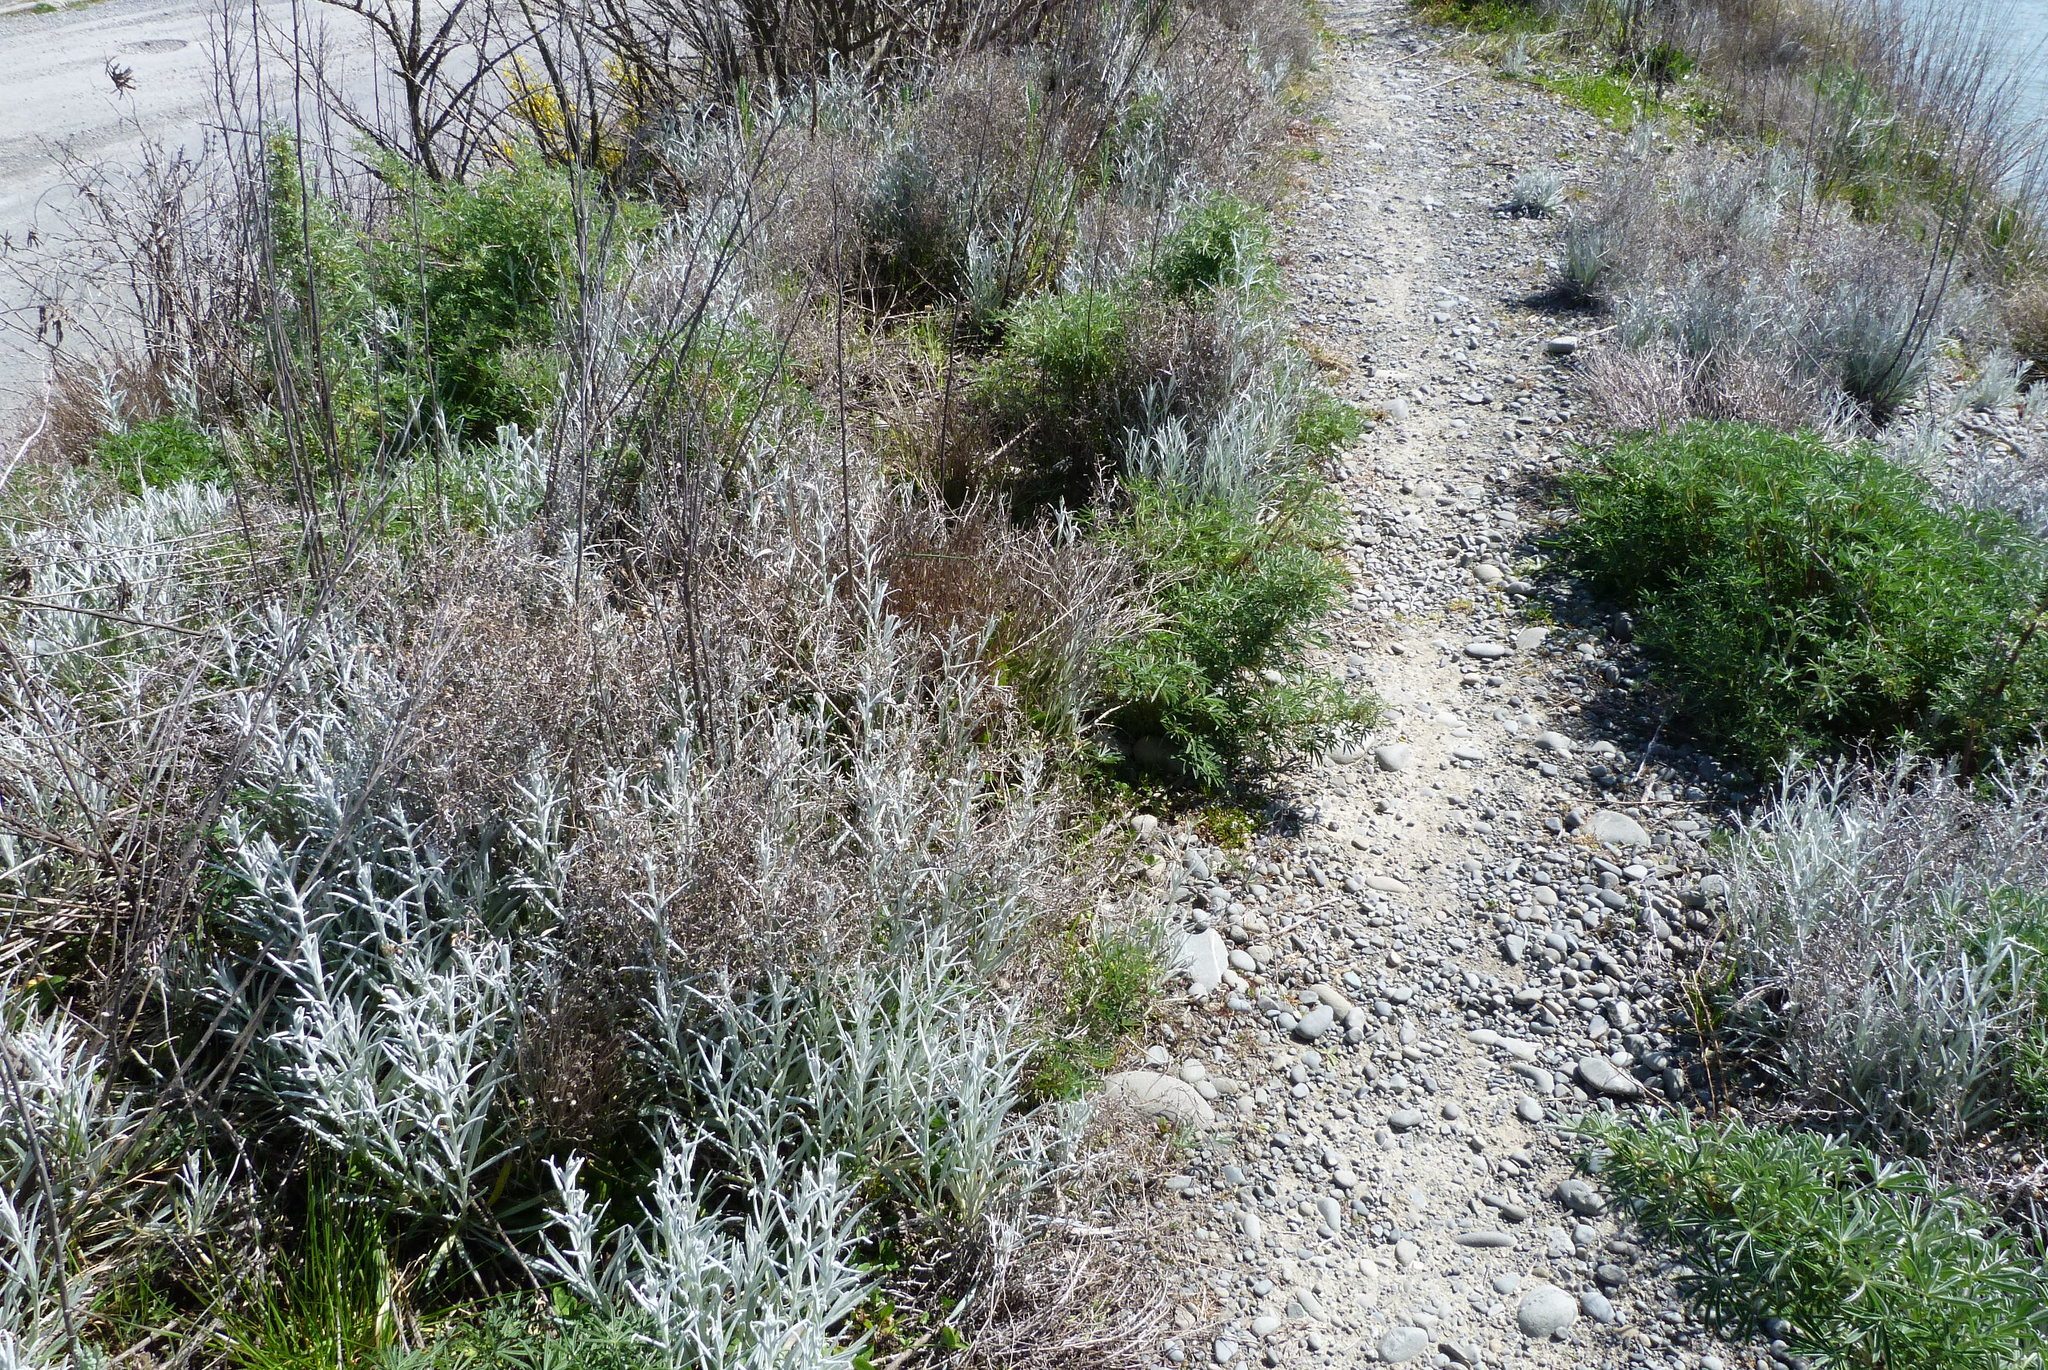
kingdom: Plantae
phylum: Tracheophyta
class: Magnoliopsida
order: Asterales
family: Asteraceae
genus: Senecio
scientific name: Senecio quadridentatus
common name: Cotton fireweed
